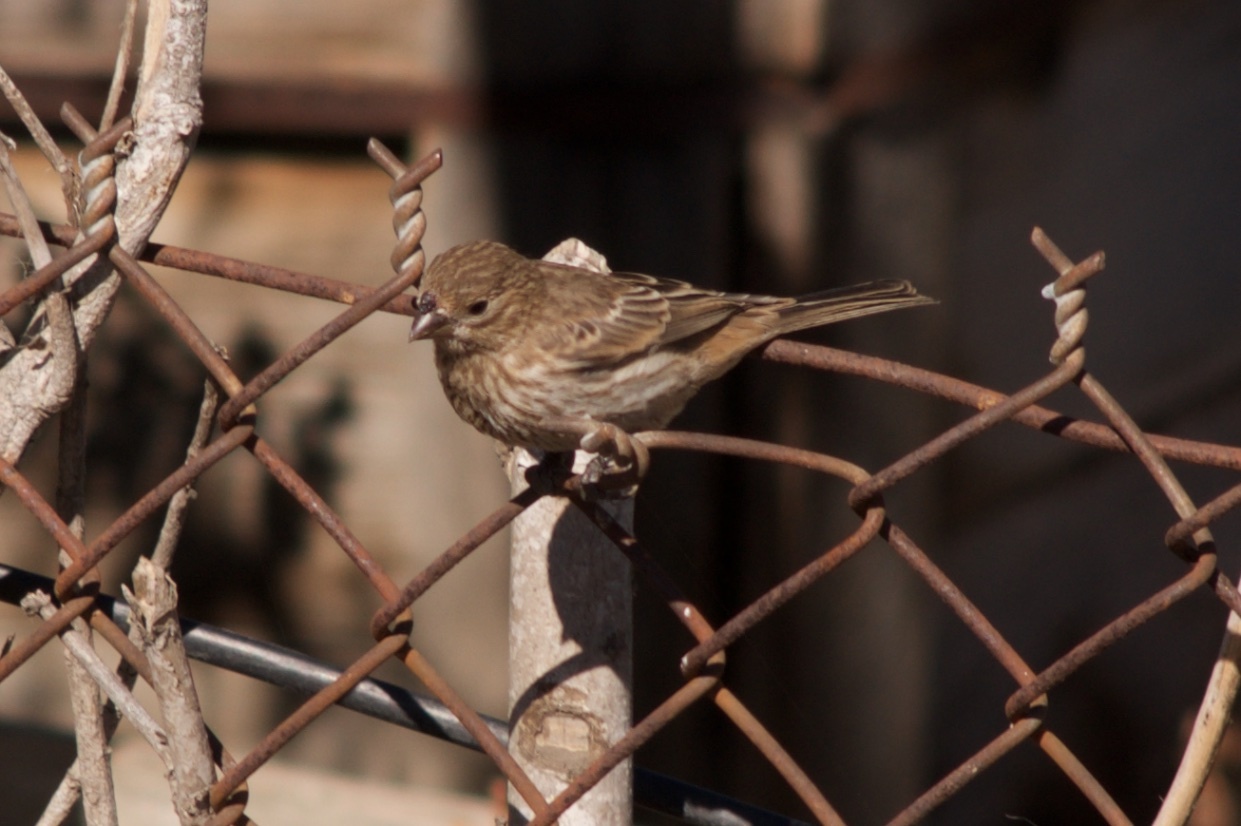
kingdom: Animalia
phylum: Chordata
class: Aves
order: Passeriformes
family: Fringillidae
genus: Haemorhous
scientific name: Haemorhous mexicanus
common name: House finch
